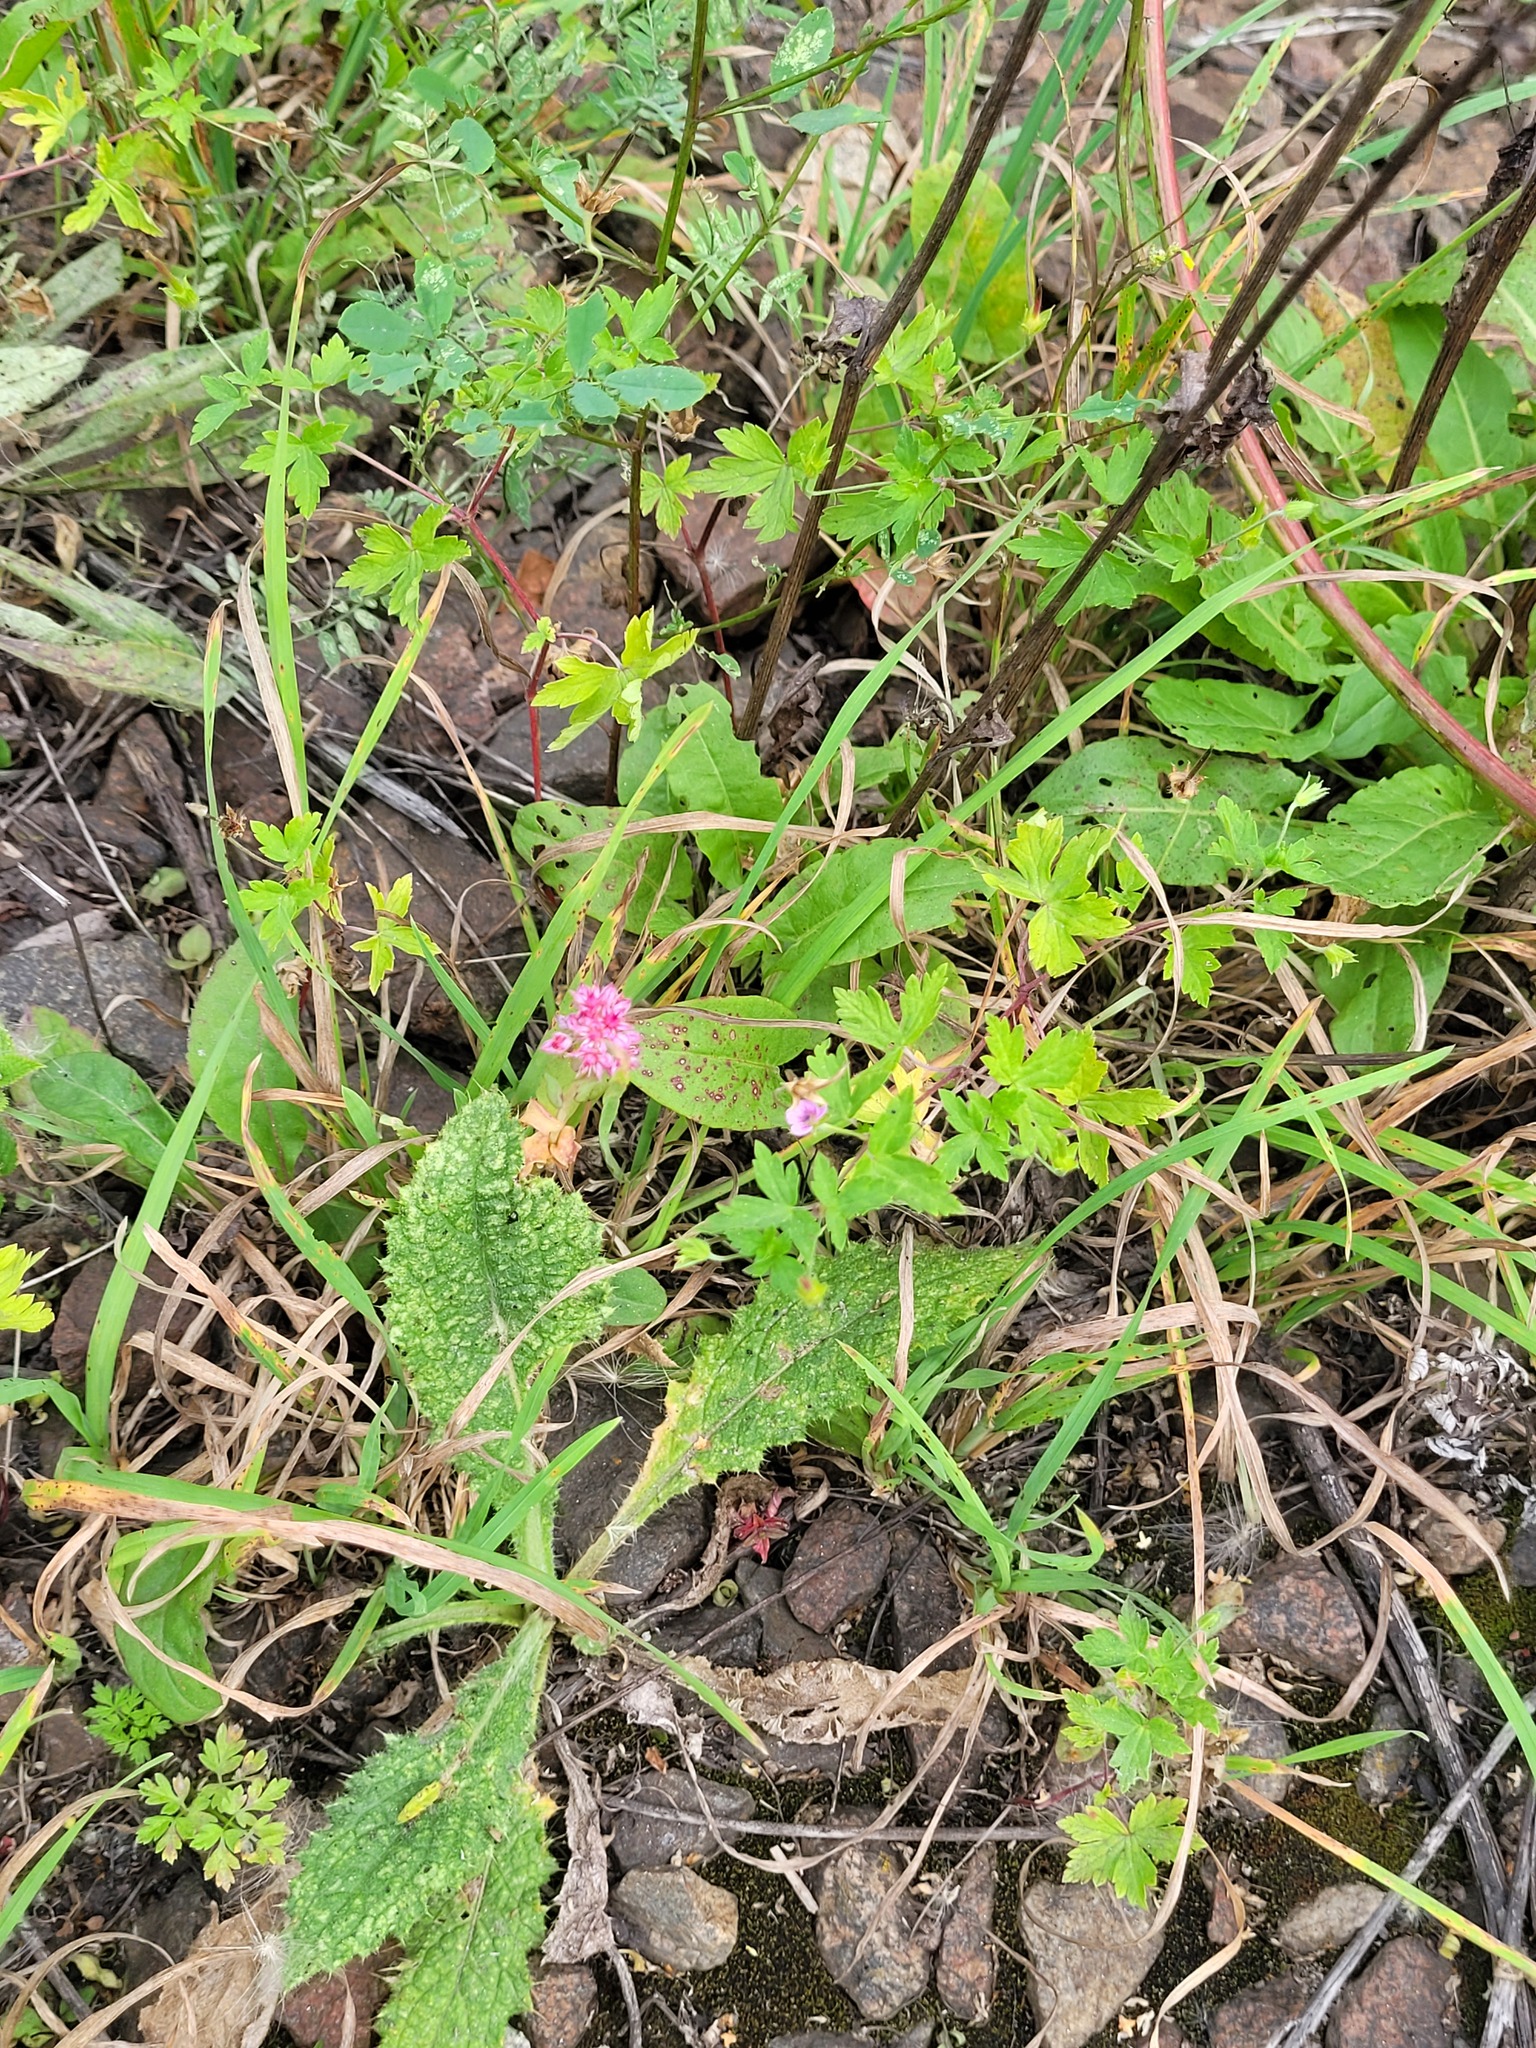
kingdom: Plantae
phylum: Tracheophyta
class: Magnoliopsida
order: Saxifragales
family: Crassulaceae
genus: Hylotelephium
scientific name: Hylotelephium telephium
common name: Live-forever
